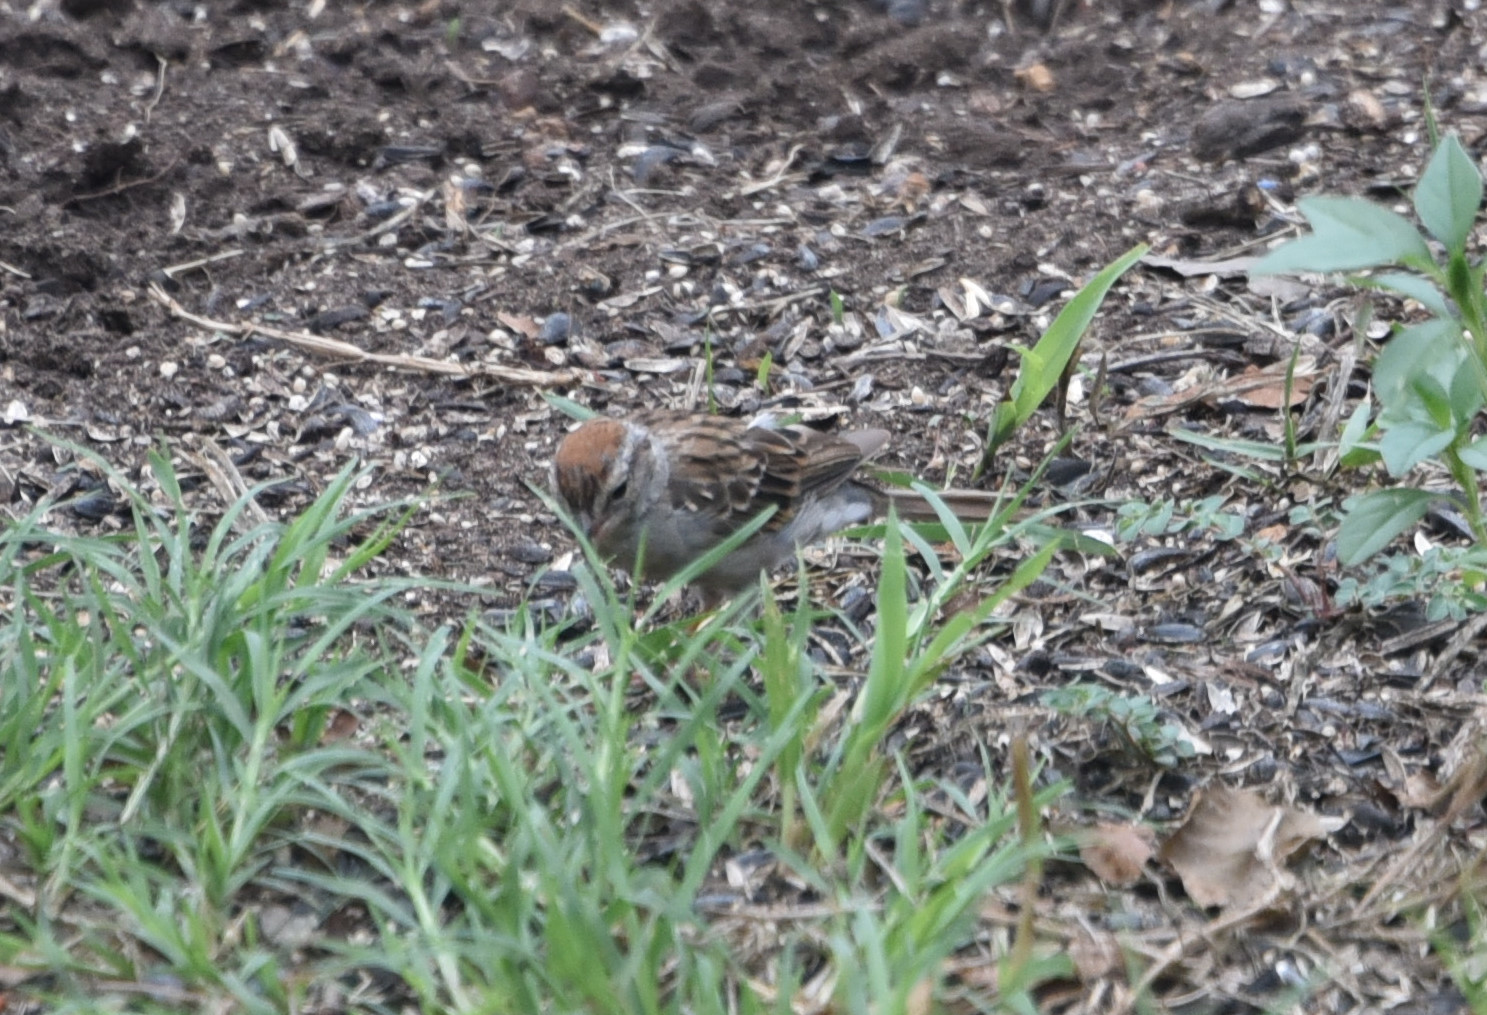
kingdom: Animalia
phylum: Chordata
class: Aves
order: Passeriformes
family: Passerellidae
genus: Spizella
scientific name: Spizella passerina
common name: Chipping sparrow
